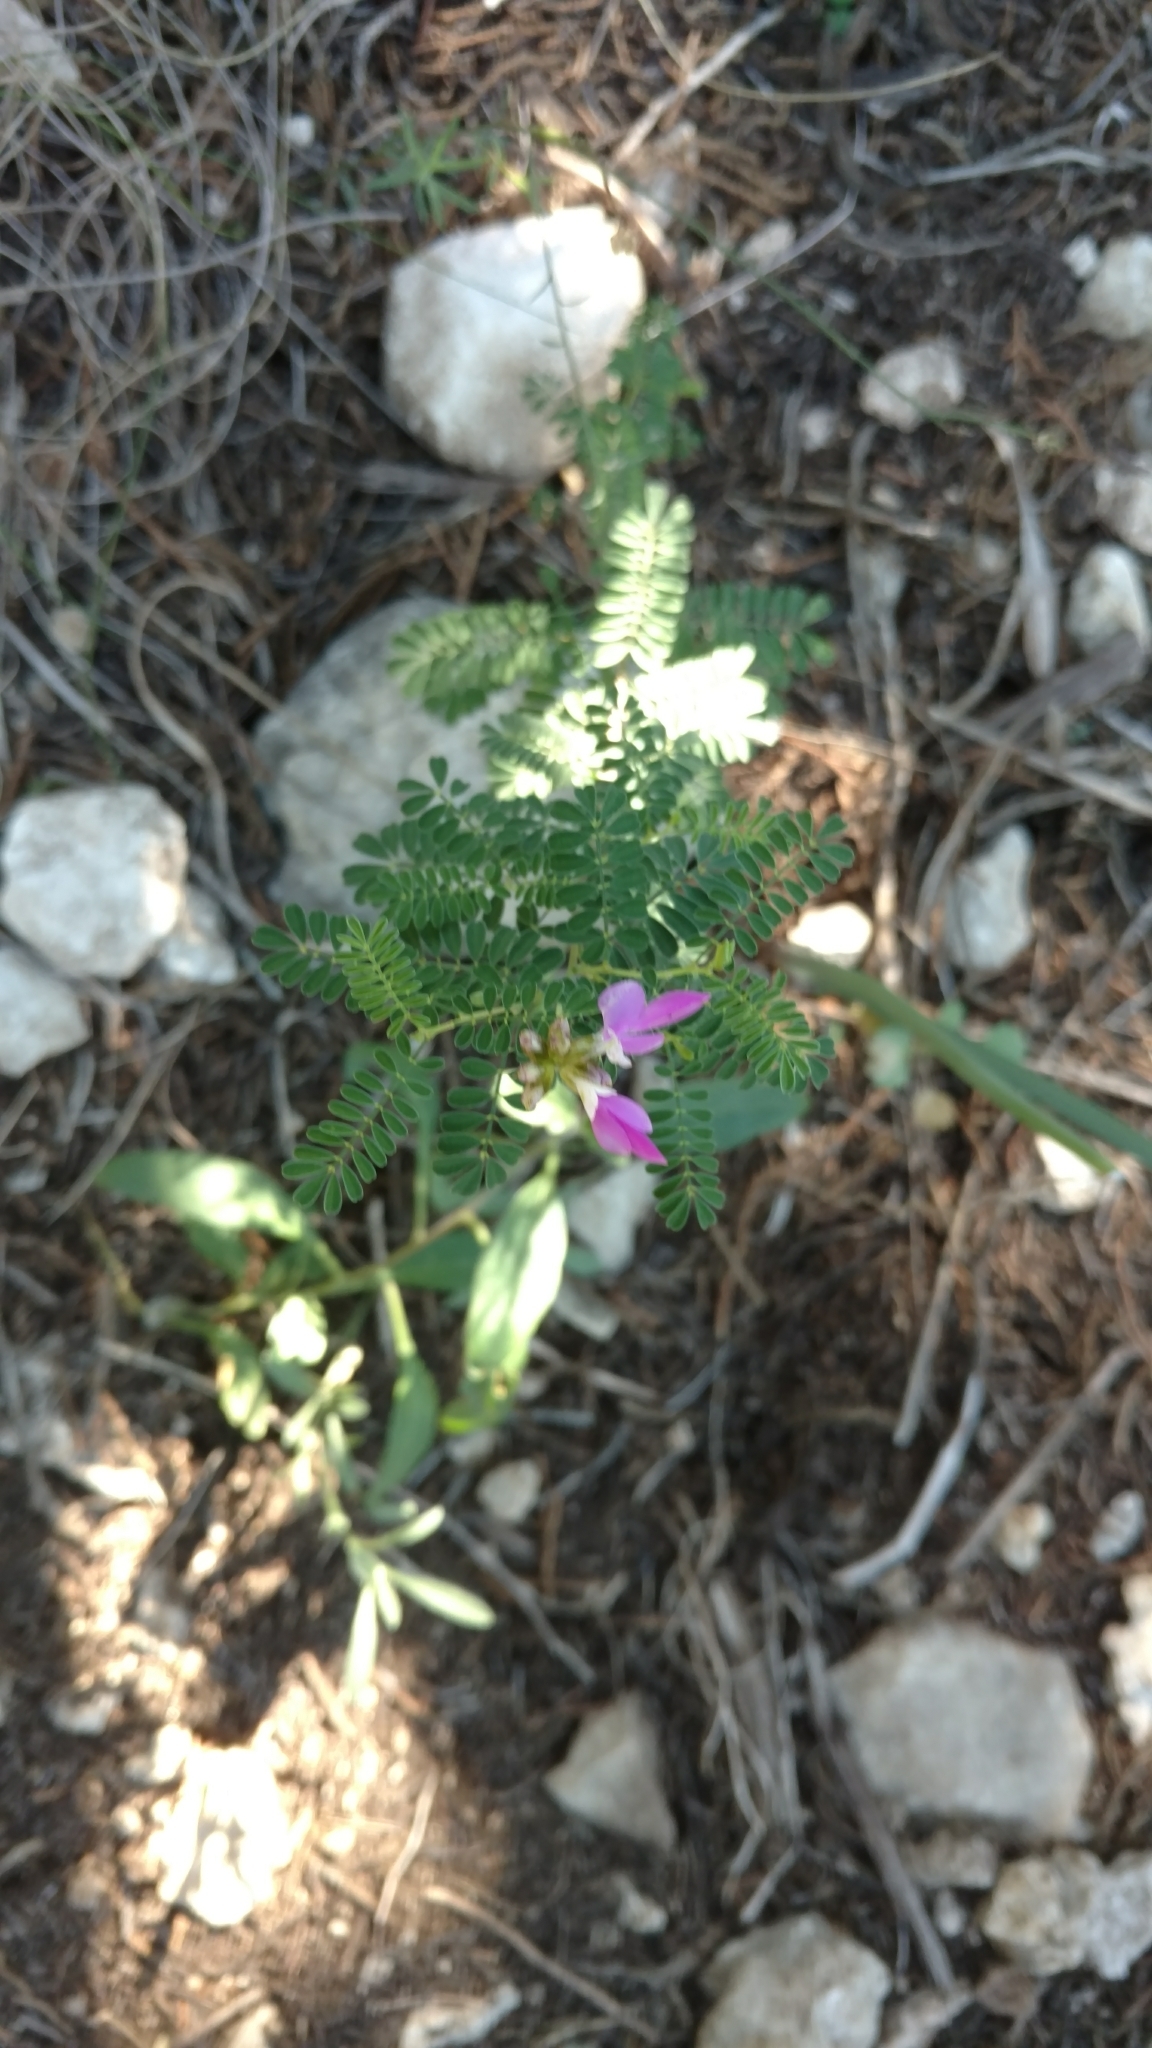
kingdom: Plantae
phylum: Tracheophyta
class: Magnoliopsida
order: Fabales
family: Fabaceae
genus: Dalea
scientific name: Dalea frutescens
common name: Black dalea
